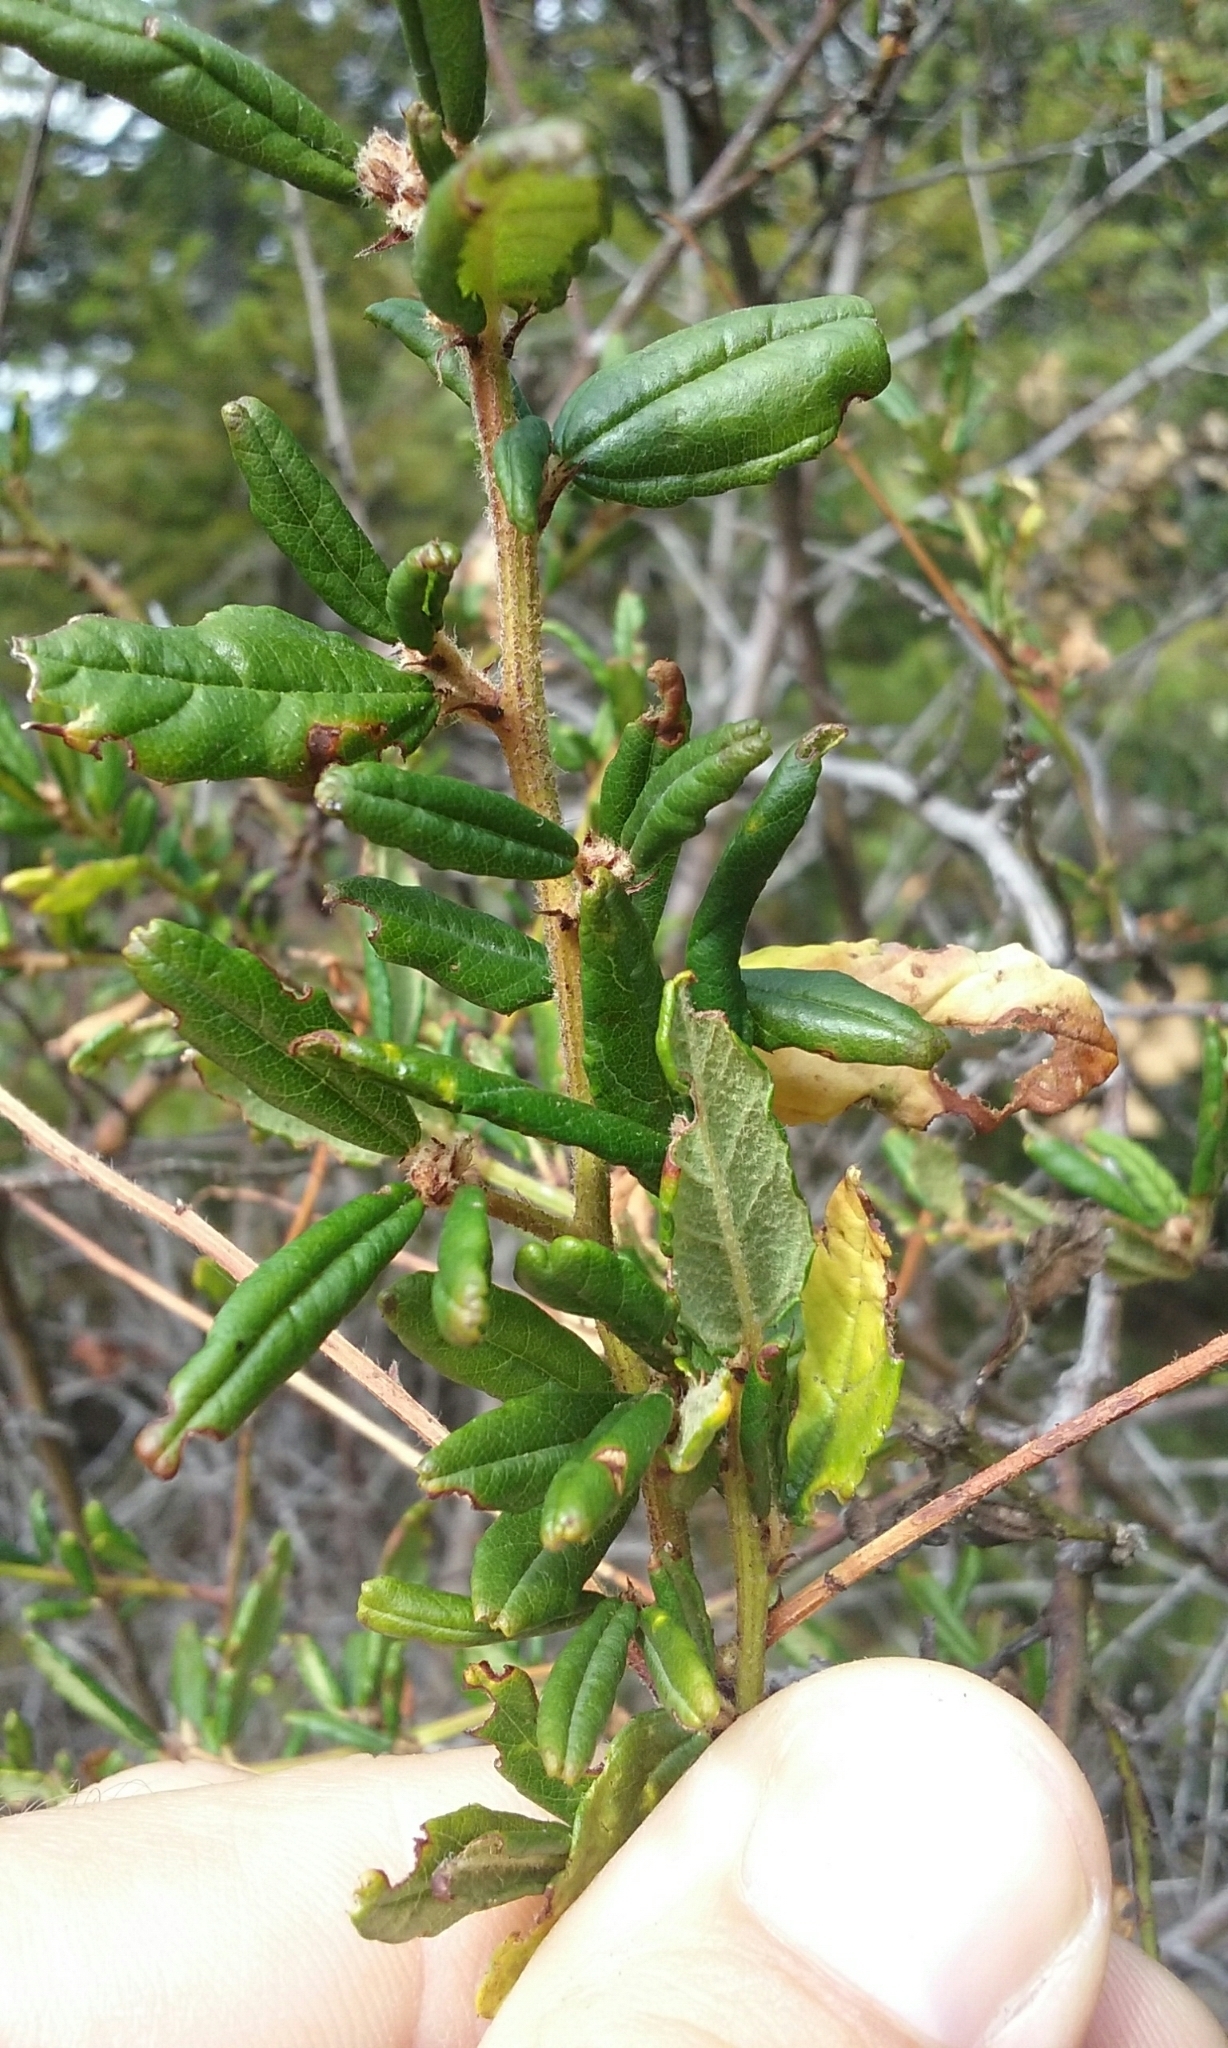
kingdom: Plantae
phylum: Tracheophyta
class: Magnoliopsida
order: Rosales
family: Rhamnaceae
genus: Ceanothus
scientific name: Ceanothus parryi
